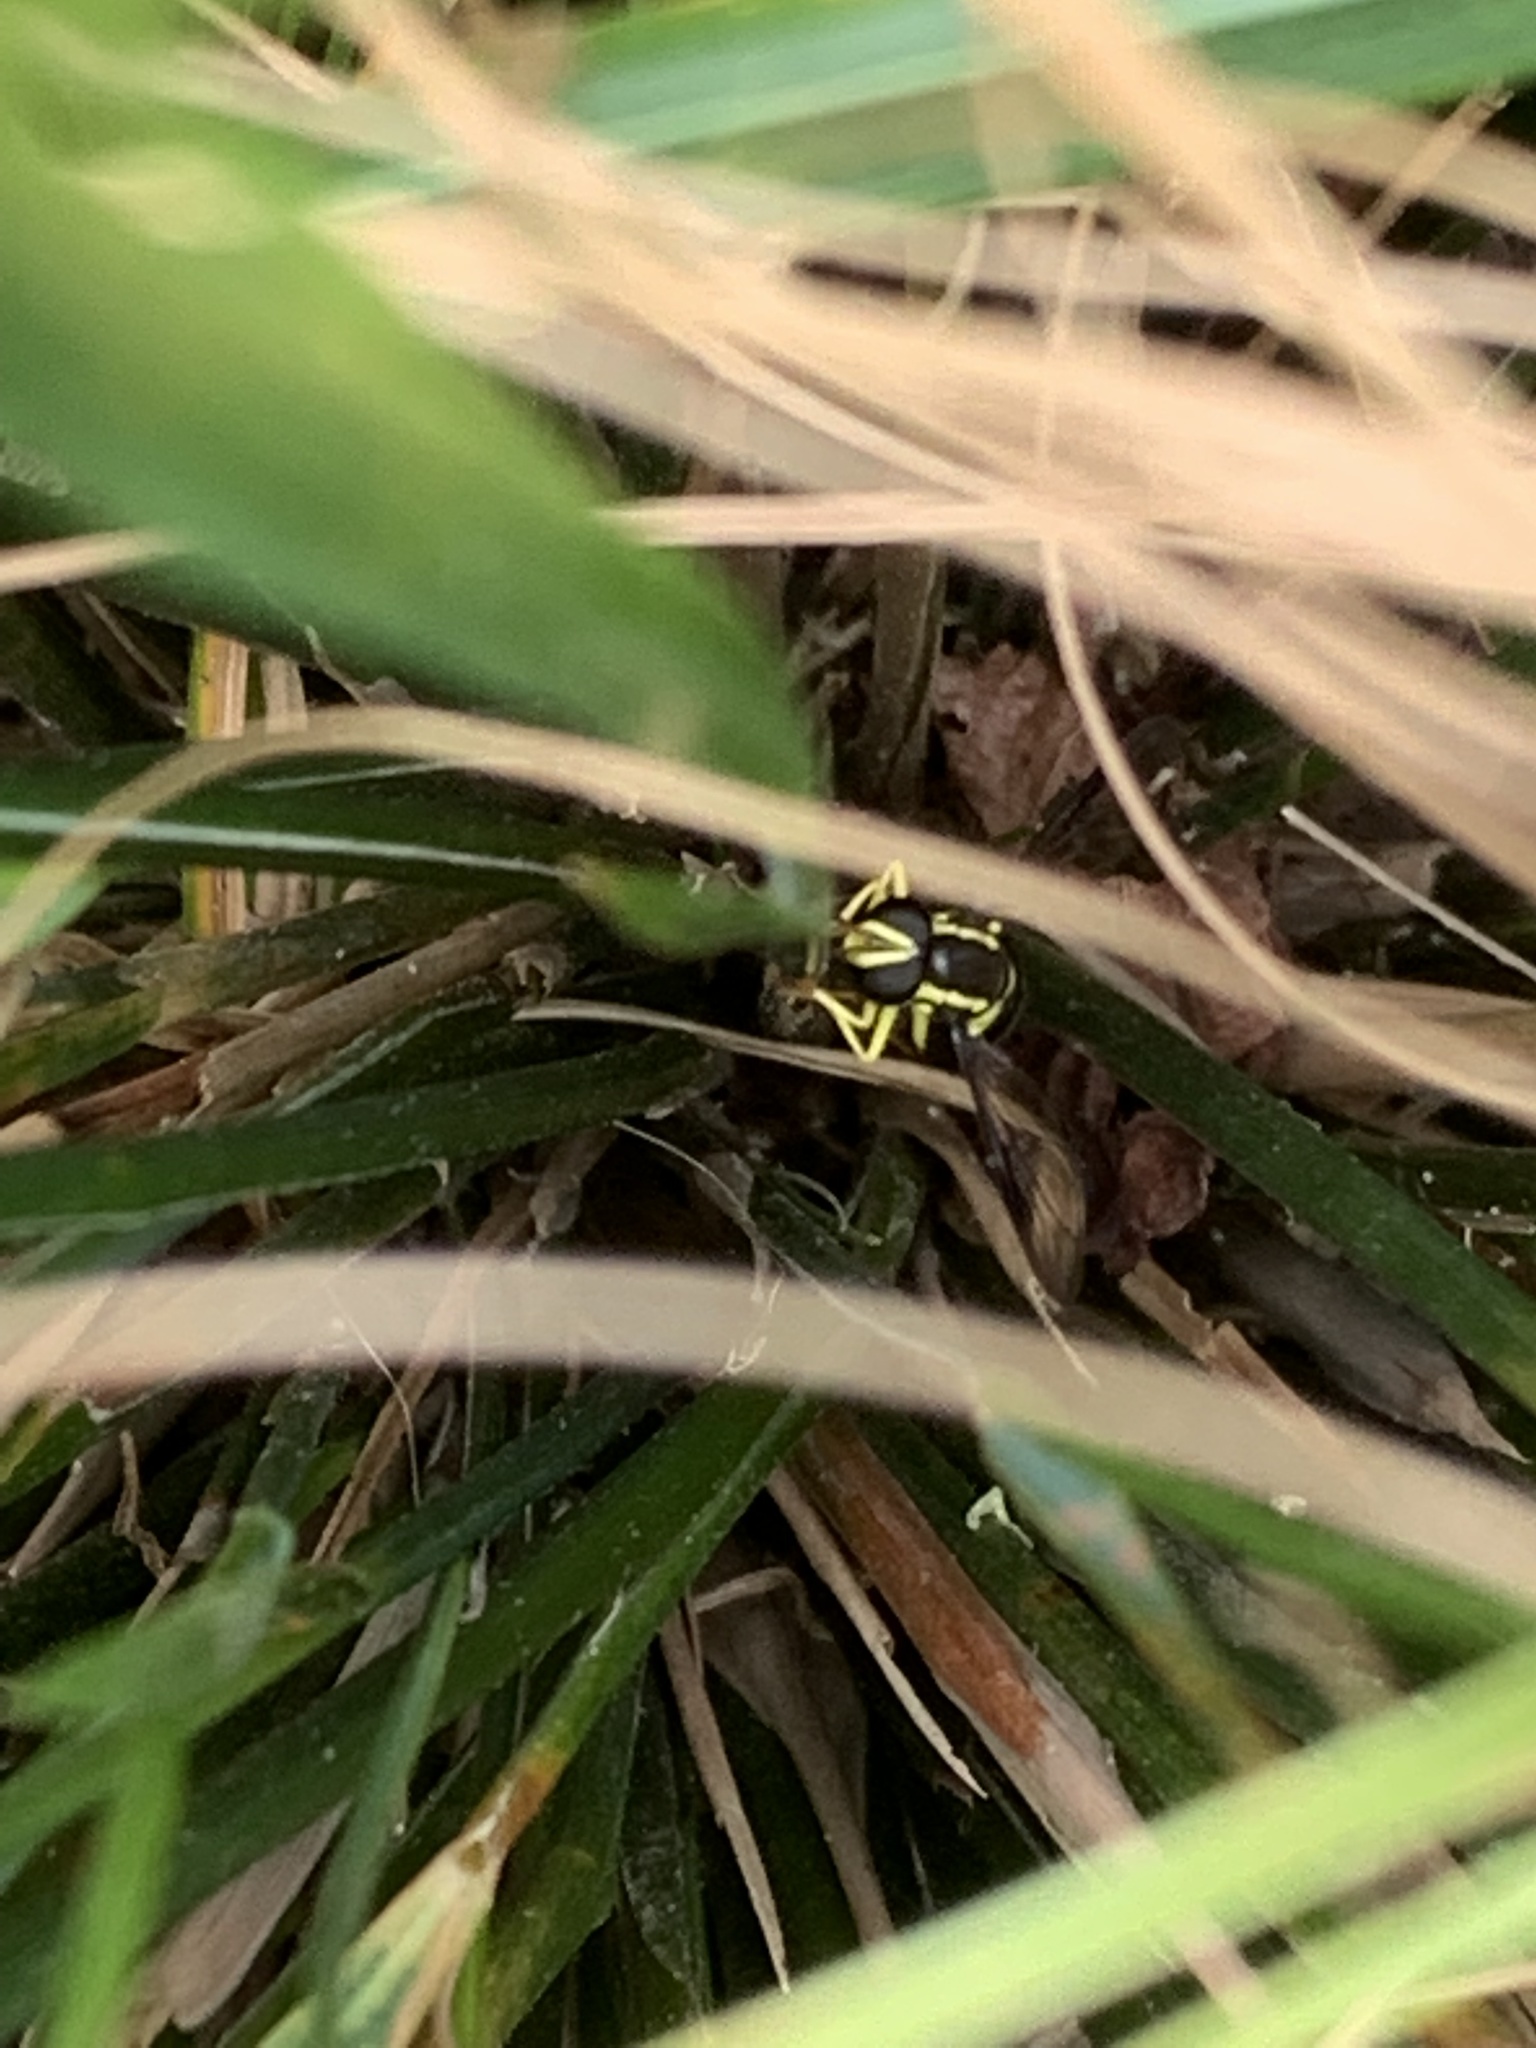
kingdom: Animalia
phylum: Arthropoda
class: Insecta
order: Diptera
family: Syrphidae
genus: Philhelius
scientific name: Philhelius pedissequum
